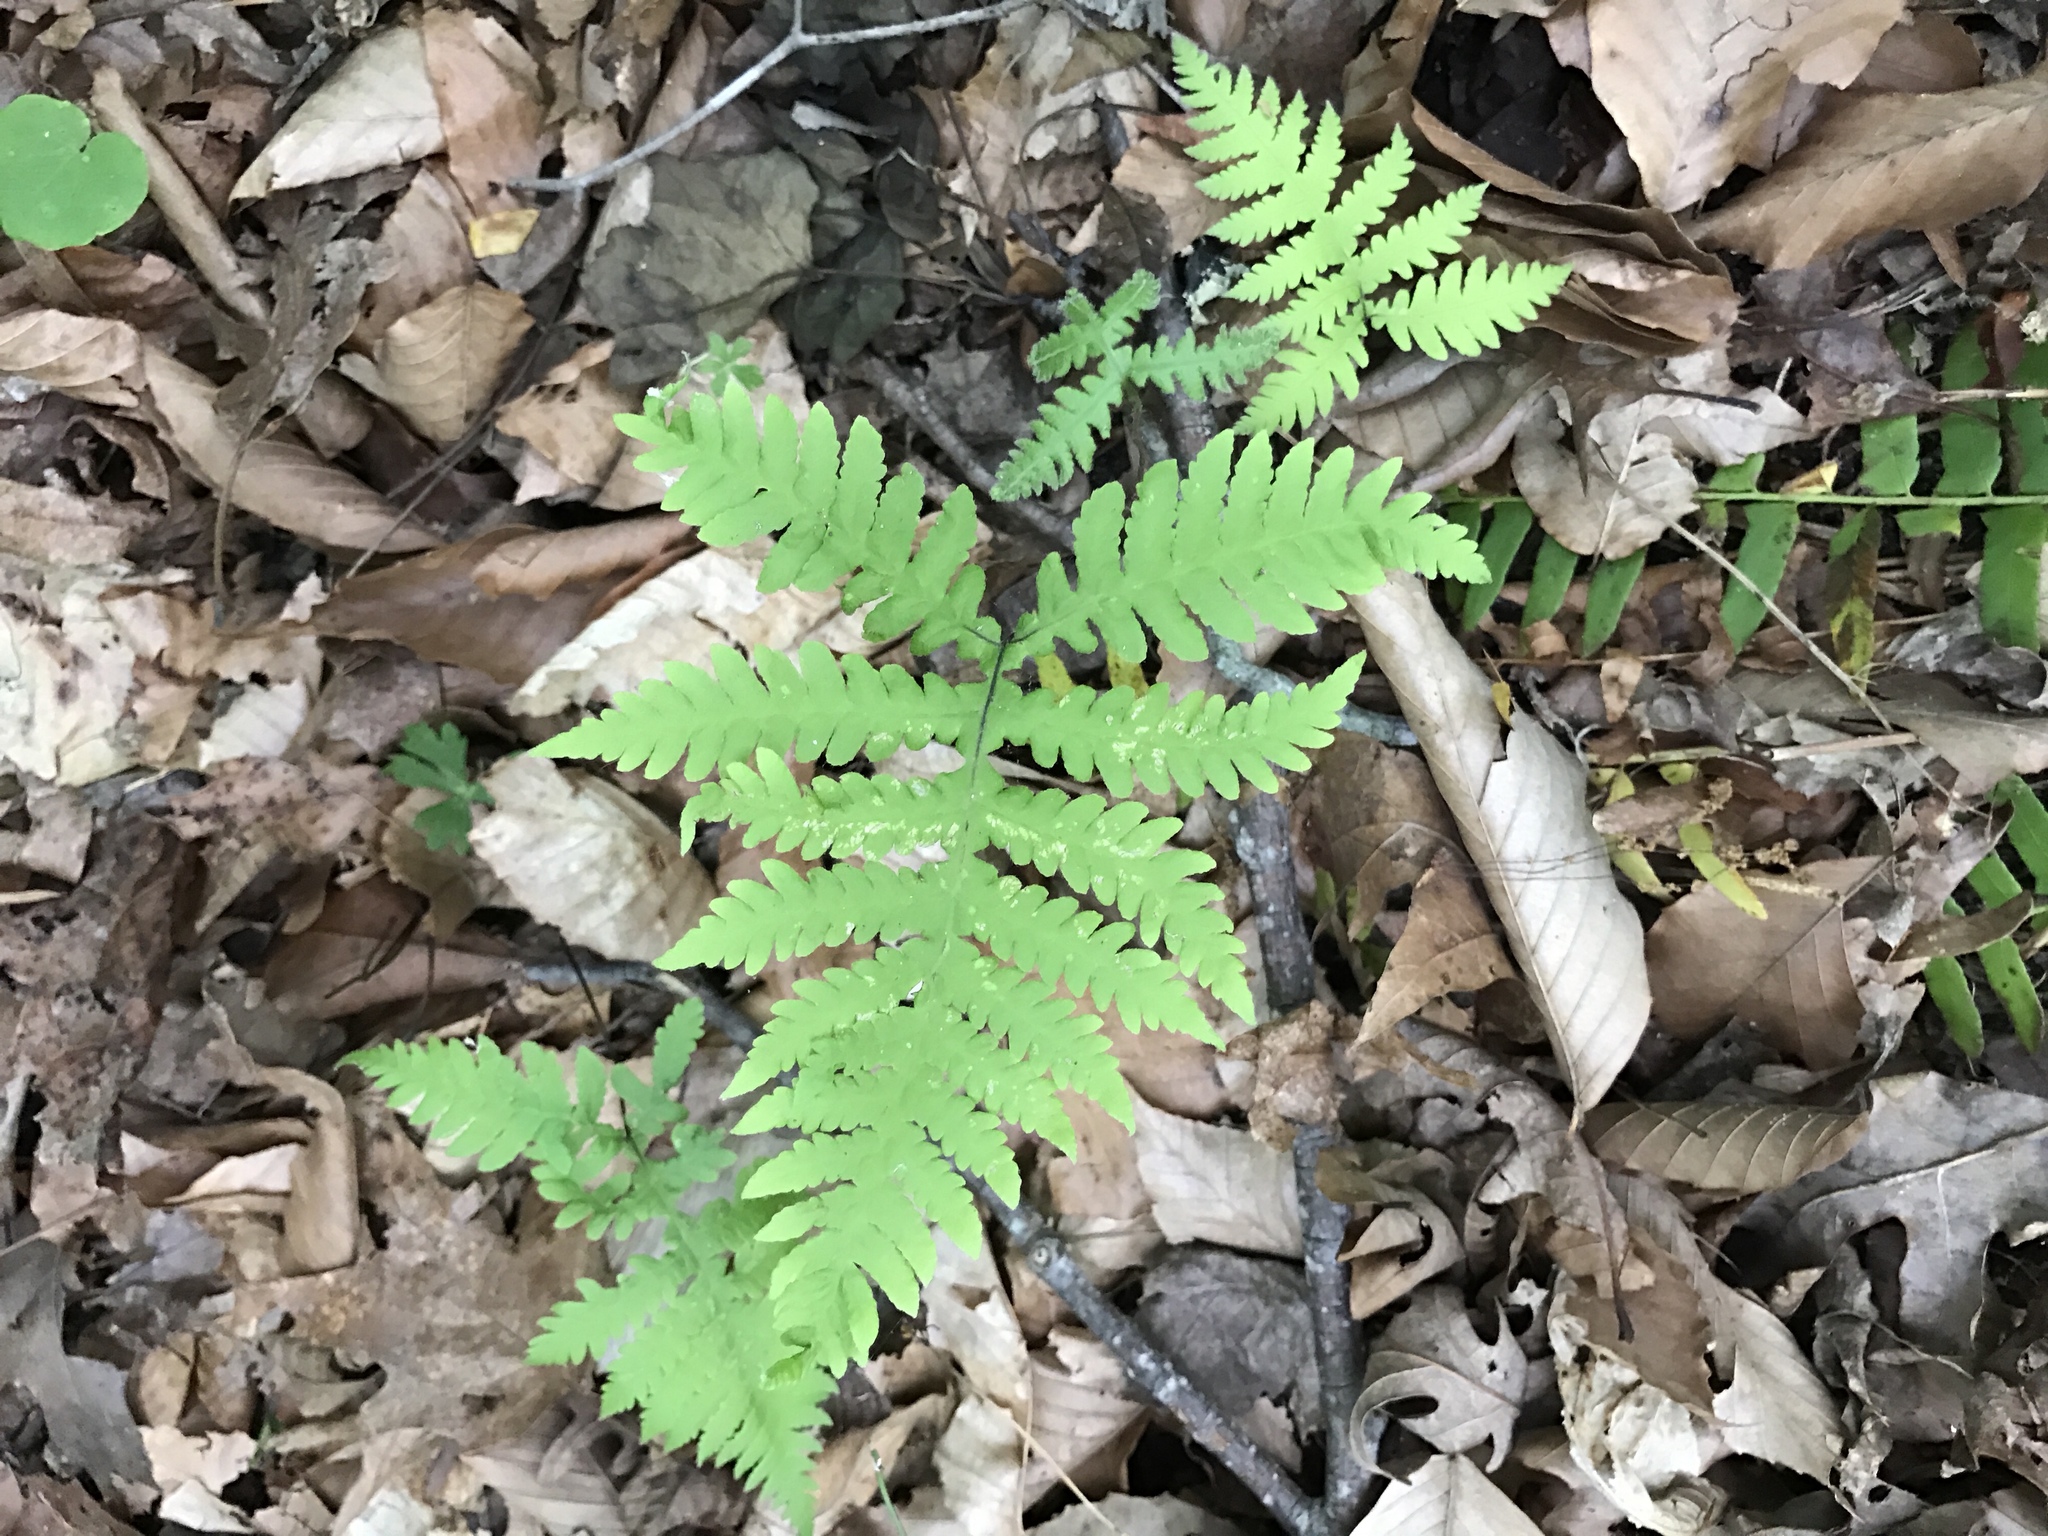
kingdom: Plantae
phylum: Tracheophyta
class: Polypodiopsida
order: Polypodiales
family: Thelypteridaceae
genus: Phegopteris
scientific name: Phegopteris hexagonoptera
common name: Broad beech fern
